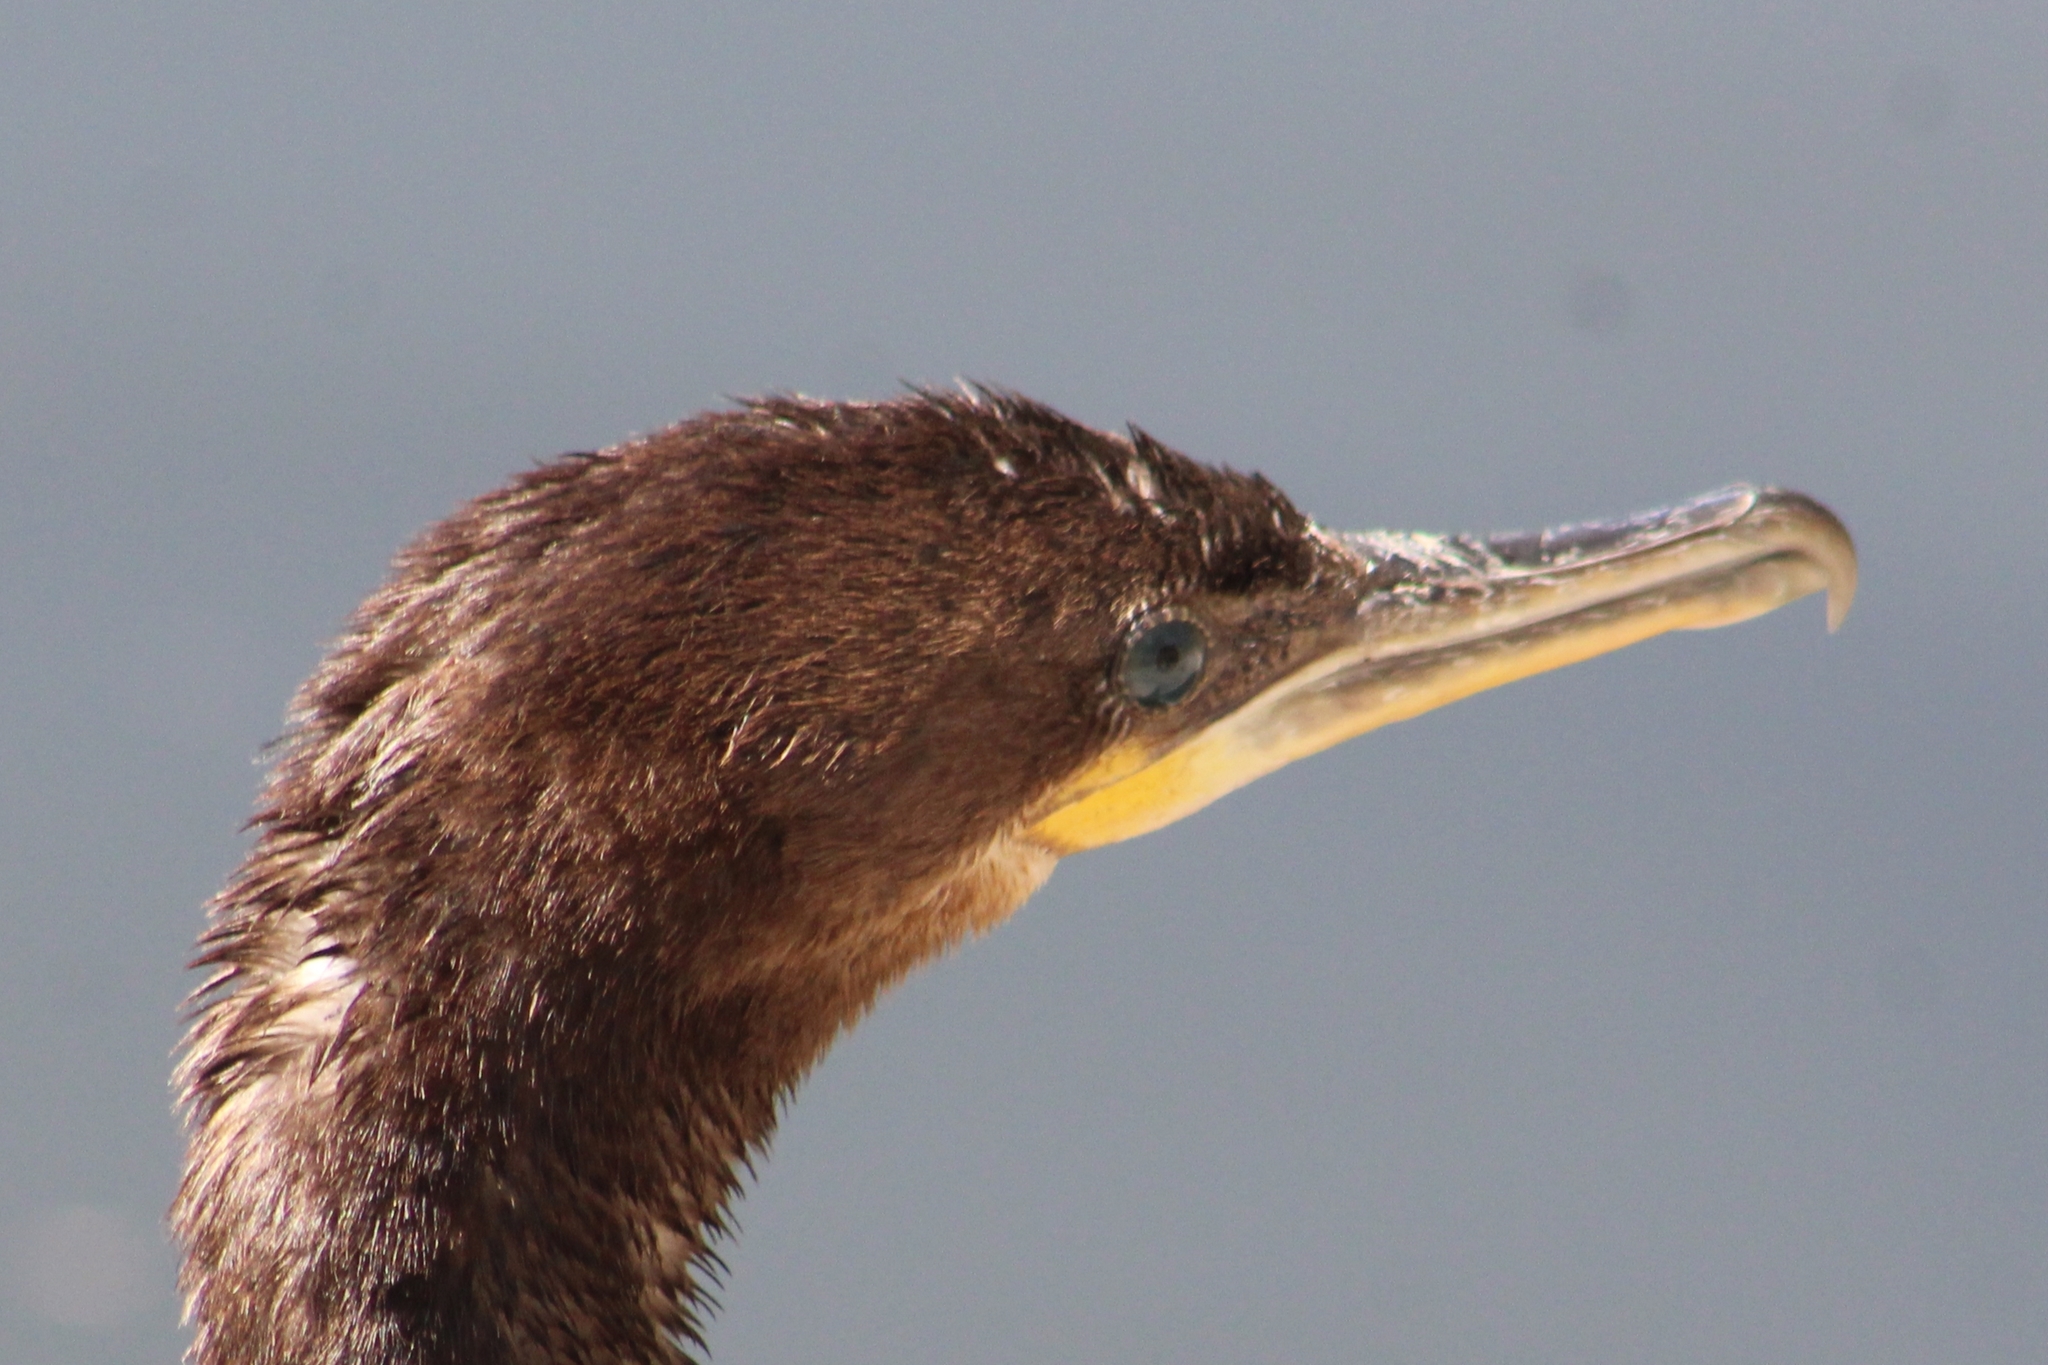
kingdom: Animalia
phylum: Chordata
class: Aves
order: Suliformes
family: Phalacrocoracidae
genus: Phalacrocorax
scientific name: Phalacrocorax brasilianus
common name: Neotropic cormorant
